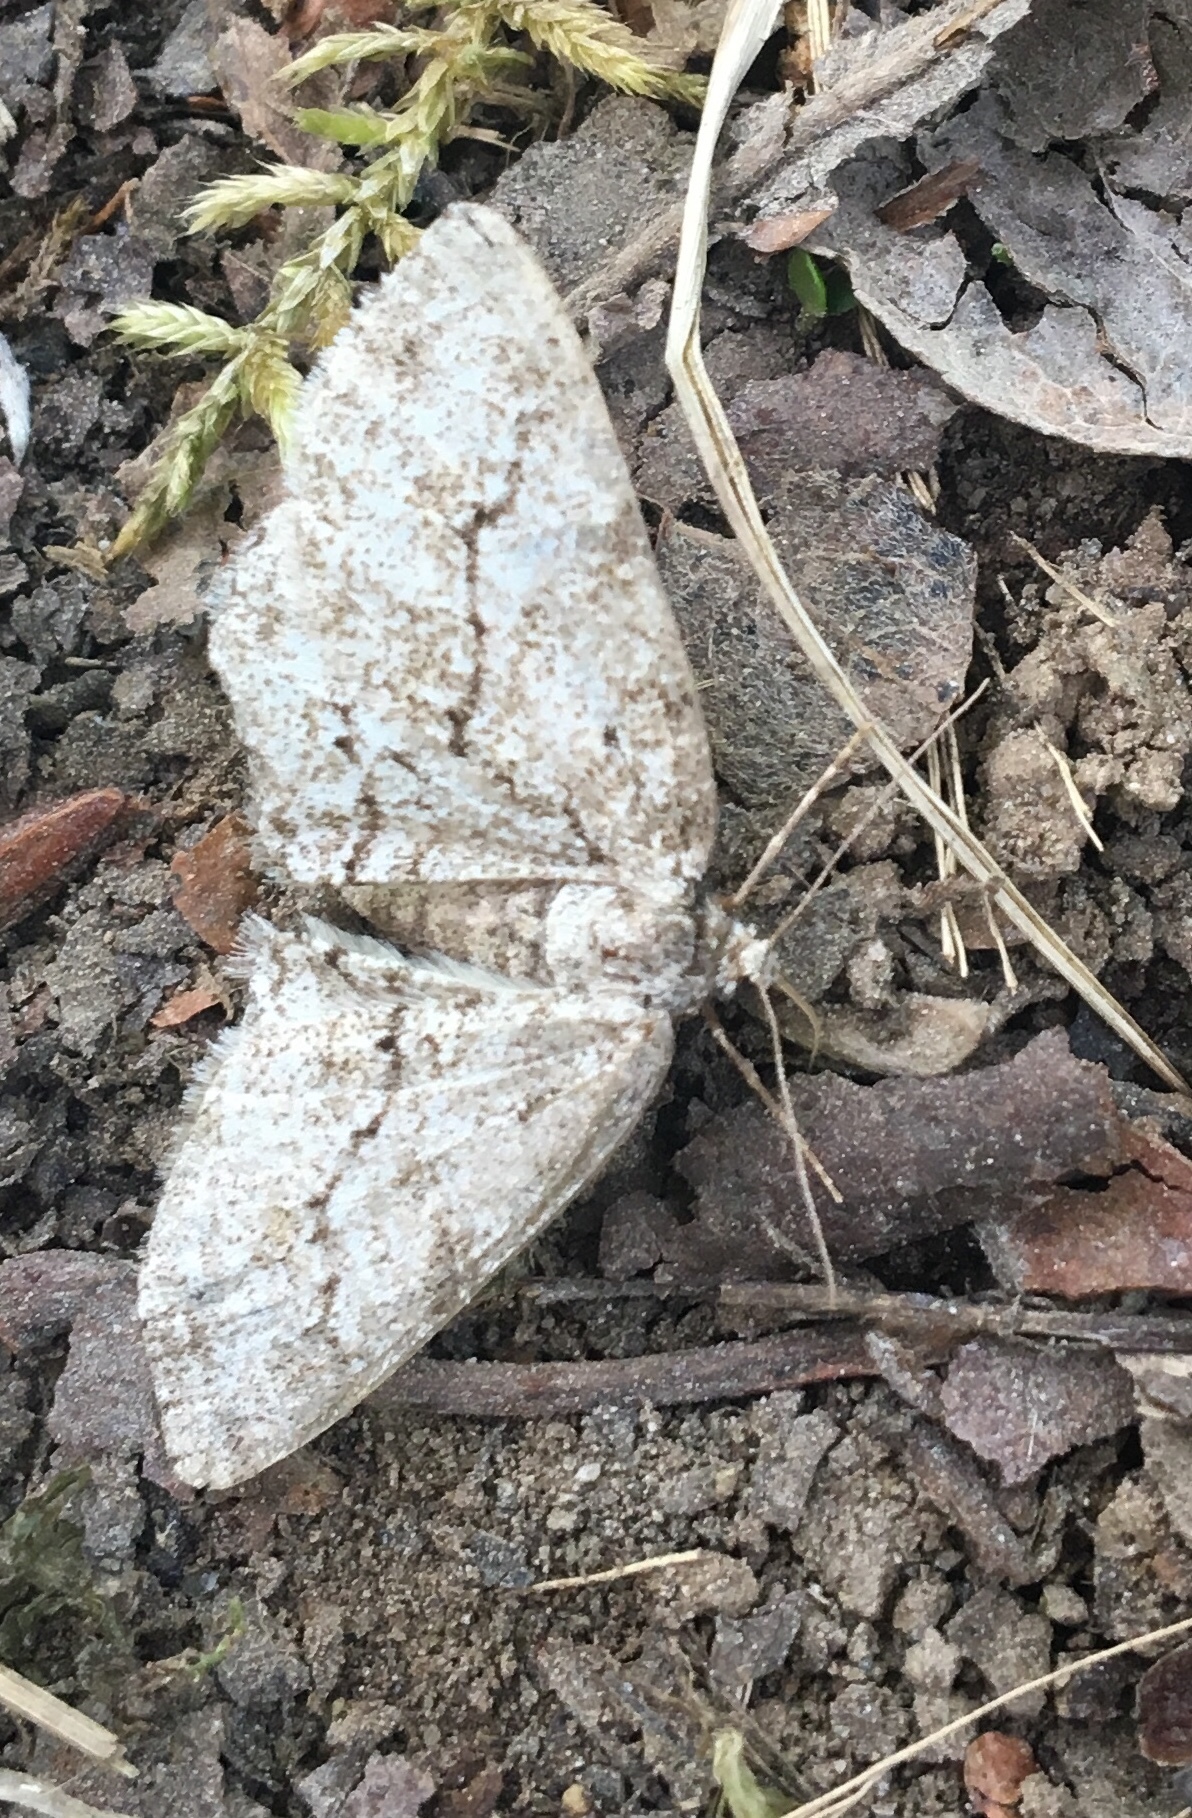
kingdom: Animalia
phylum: Arthropoda
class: Insecta
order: Lepidoptera
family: Geometridae
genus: Ectropis
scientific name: Ectropis crepuscularia
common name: Engrailed
